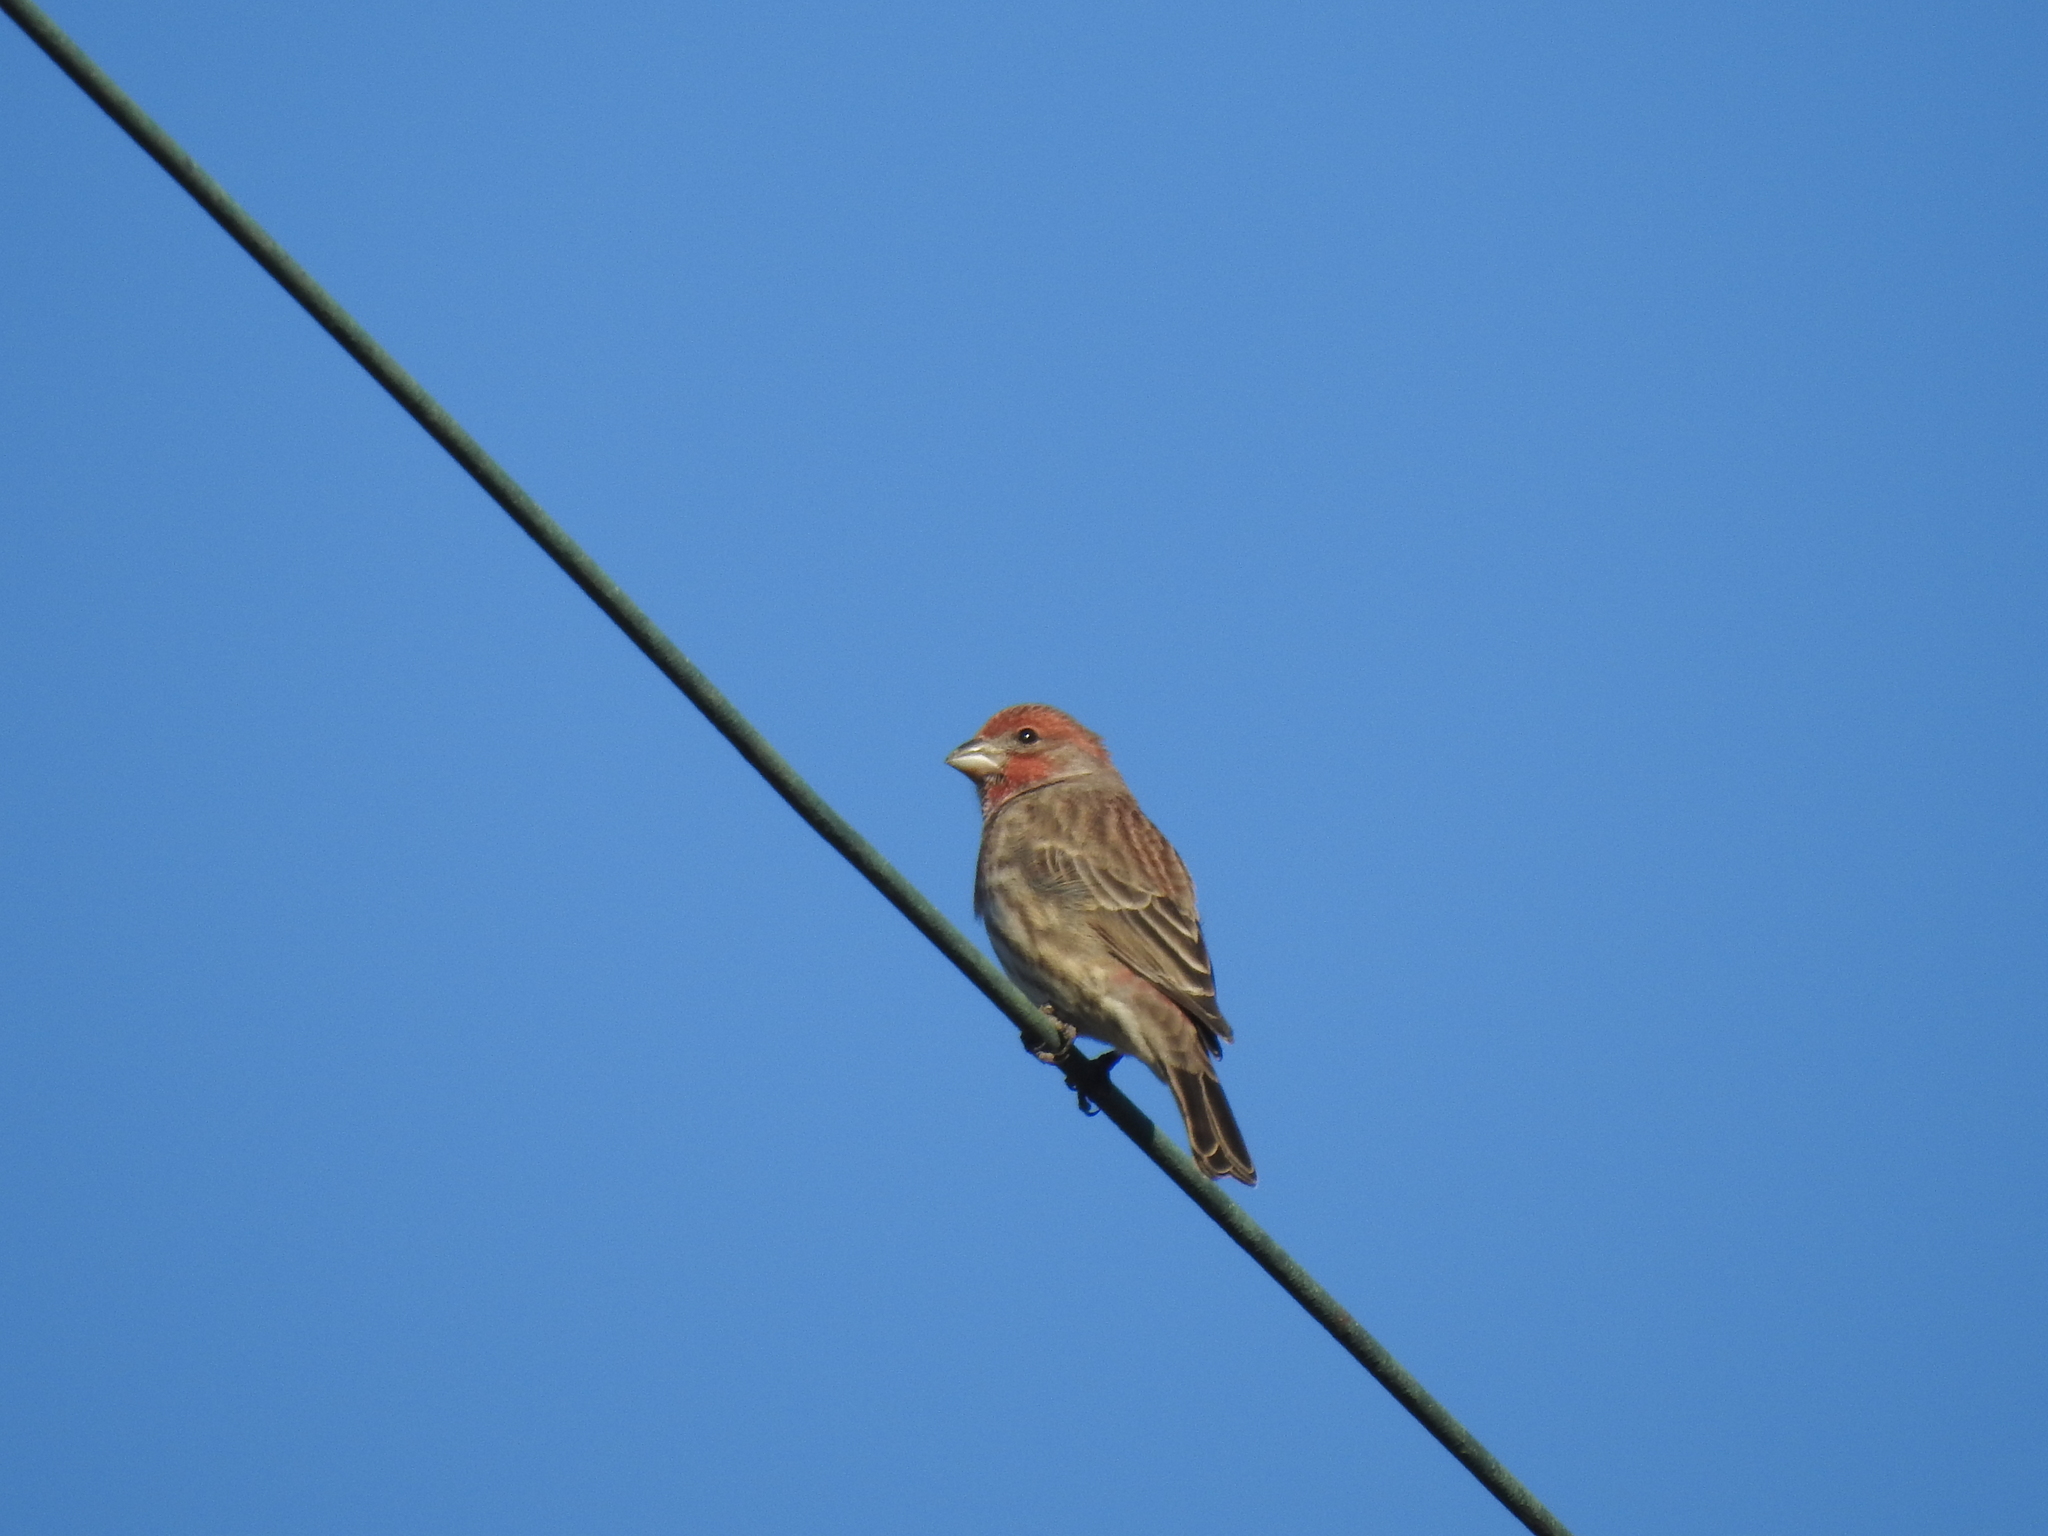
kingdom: Animalia
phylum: Chordata
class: Aves
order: Passeriformes
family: Fringillidae
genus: Haemorhous
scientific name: Haemorhous mexicanus
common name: House finch
